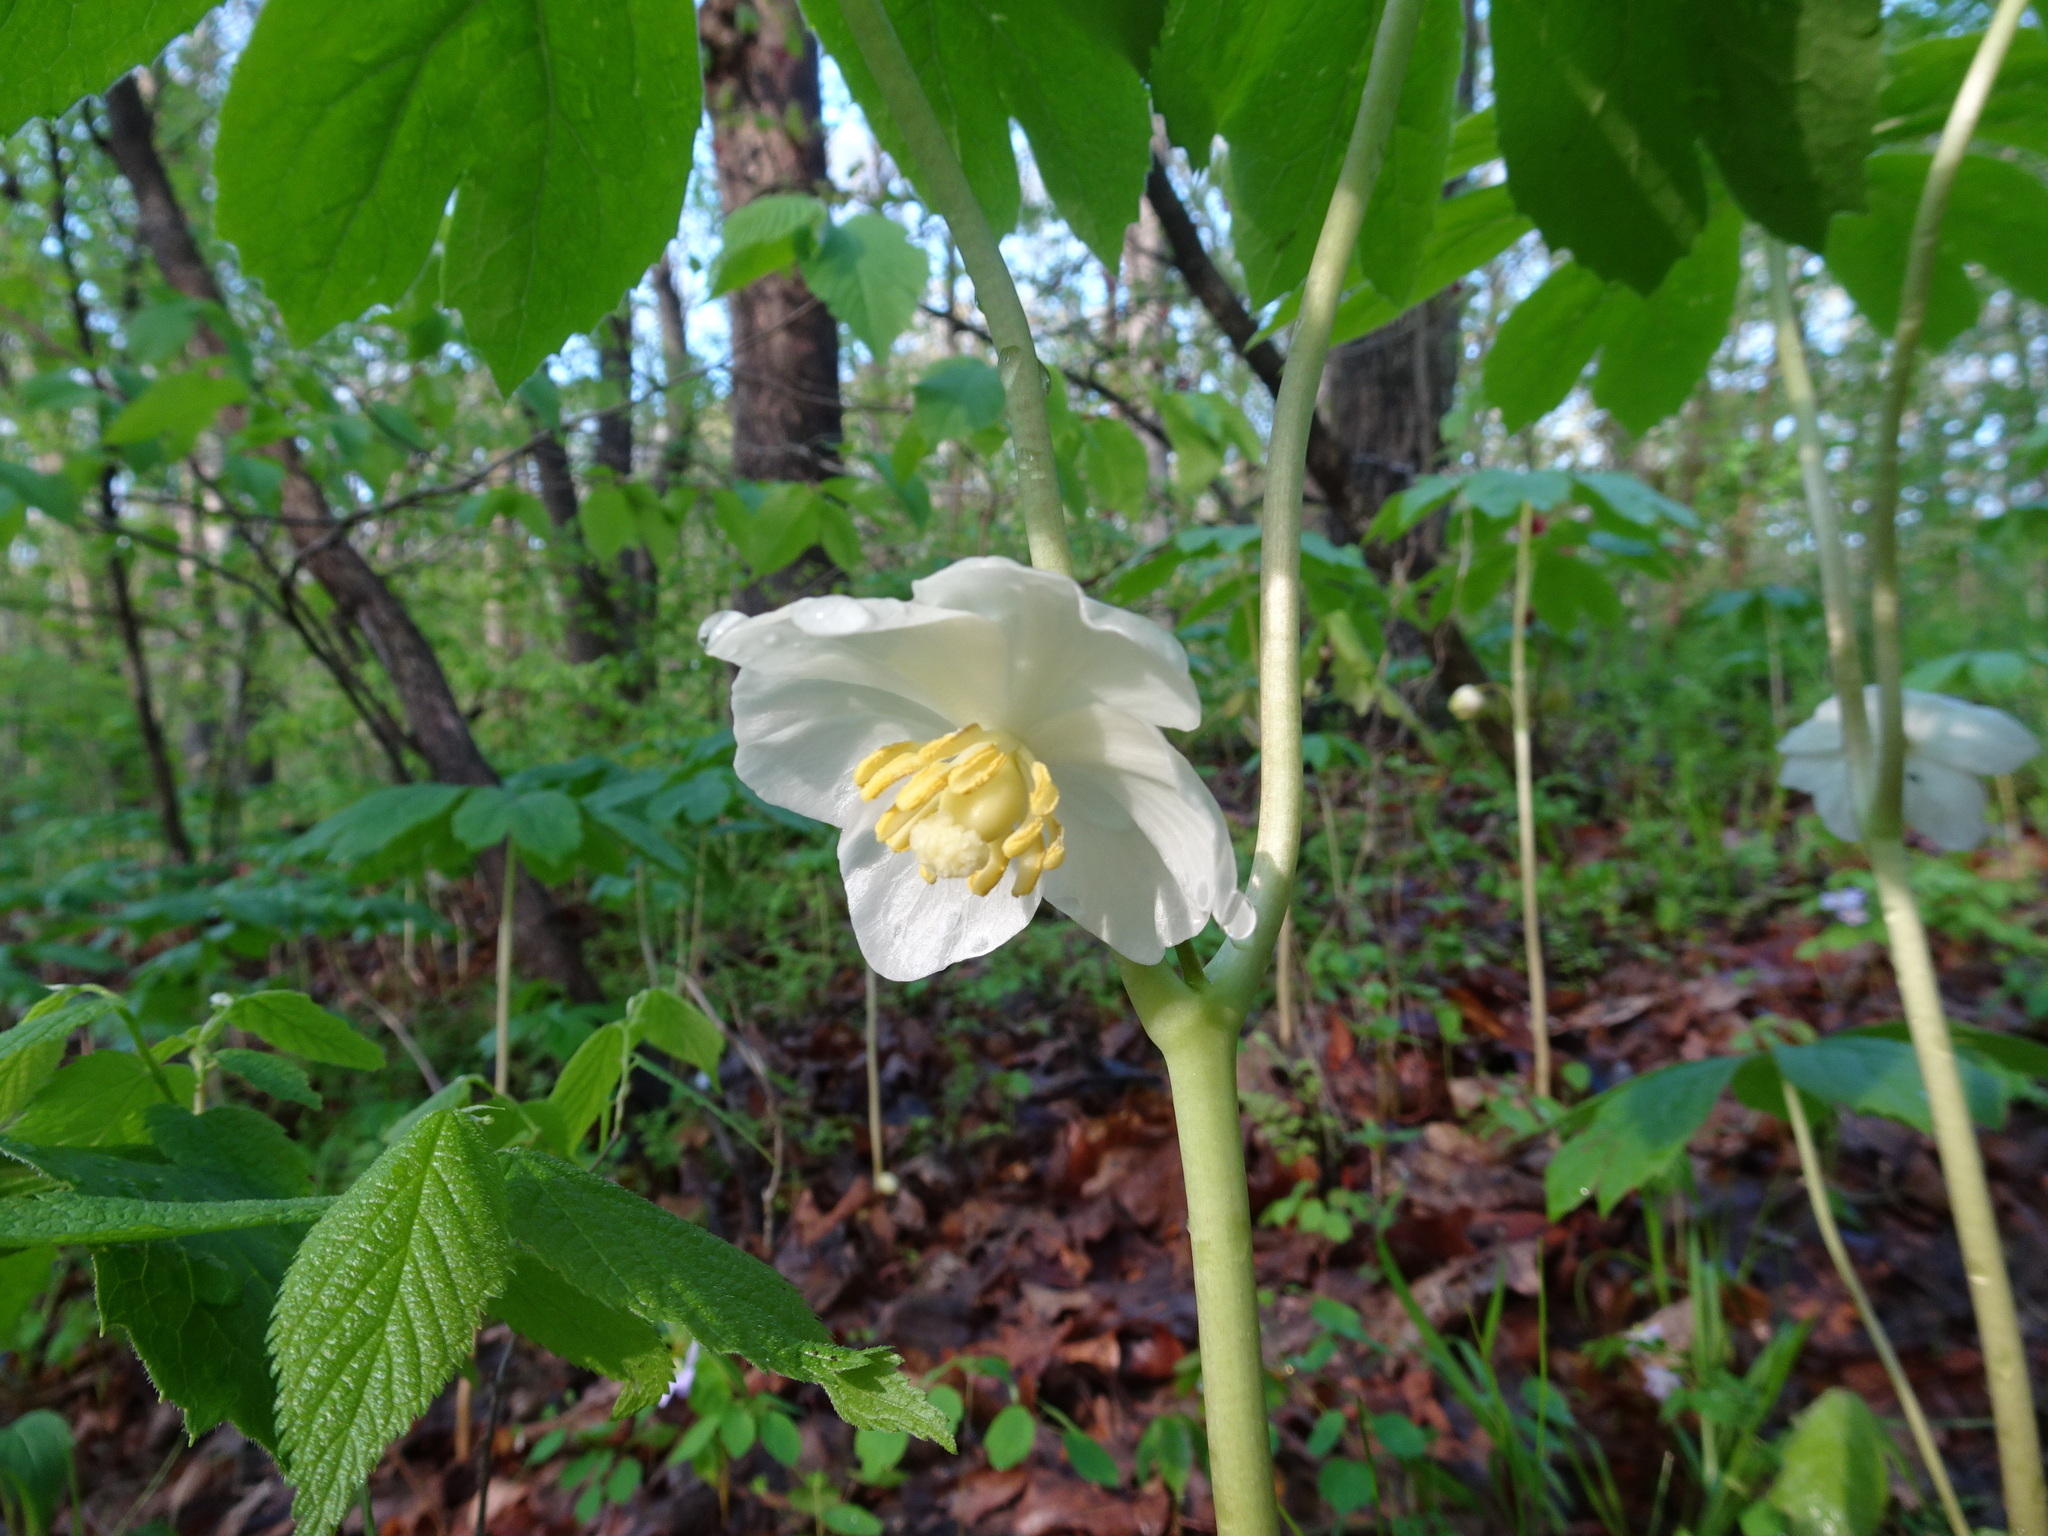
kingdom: Plantae
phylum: Tracheophyta
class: Magnoliopsida
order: Ranunculales
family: Berberidaceae
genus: Podophyllum
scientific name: Podophyllum peltatum
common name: Wild mandrake
